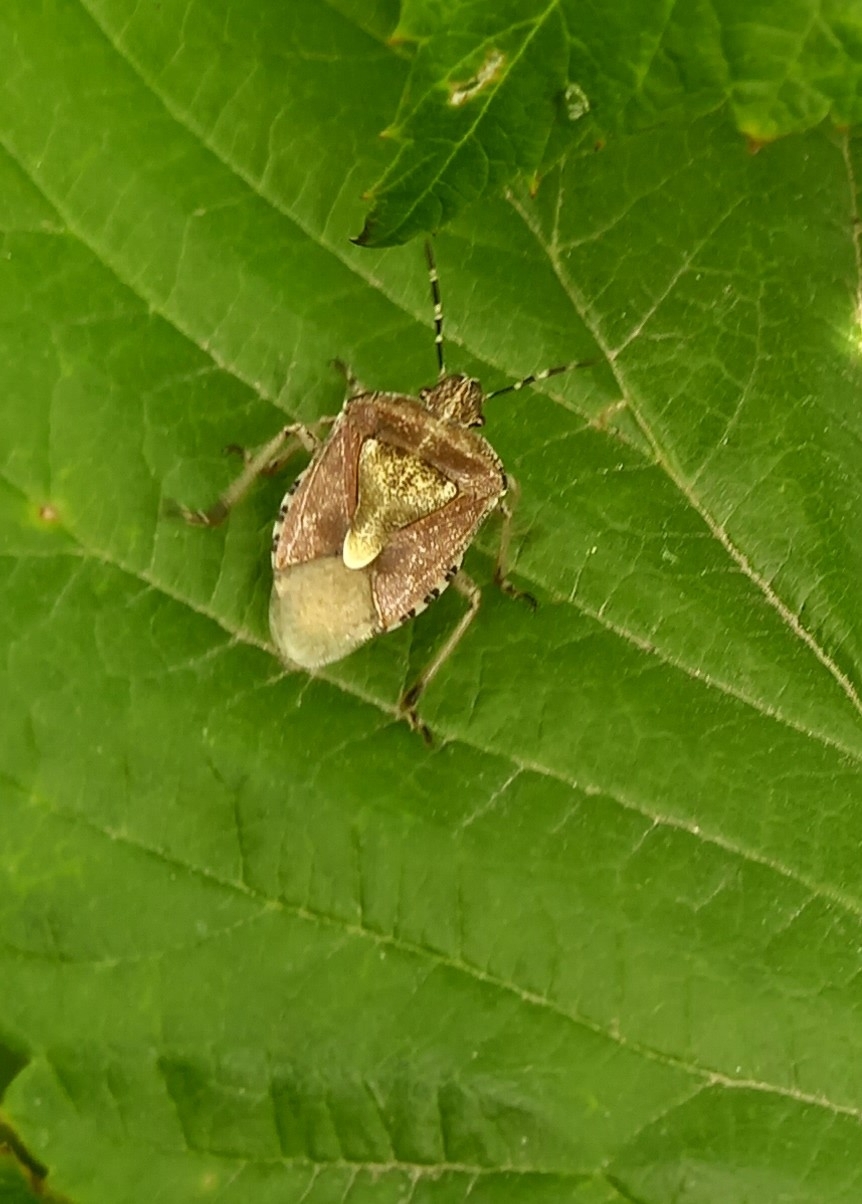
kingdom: Animalia
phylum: Arthropoda
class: Insecta
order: Hemiptera
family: Pentatomidae
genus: Dolycoris
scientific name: Dolycoris baccarum
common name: Sloe bug
